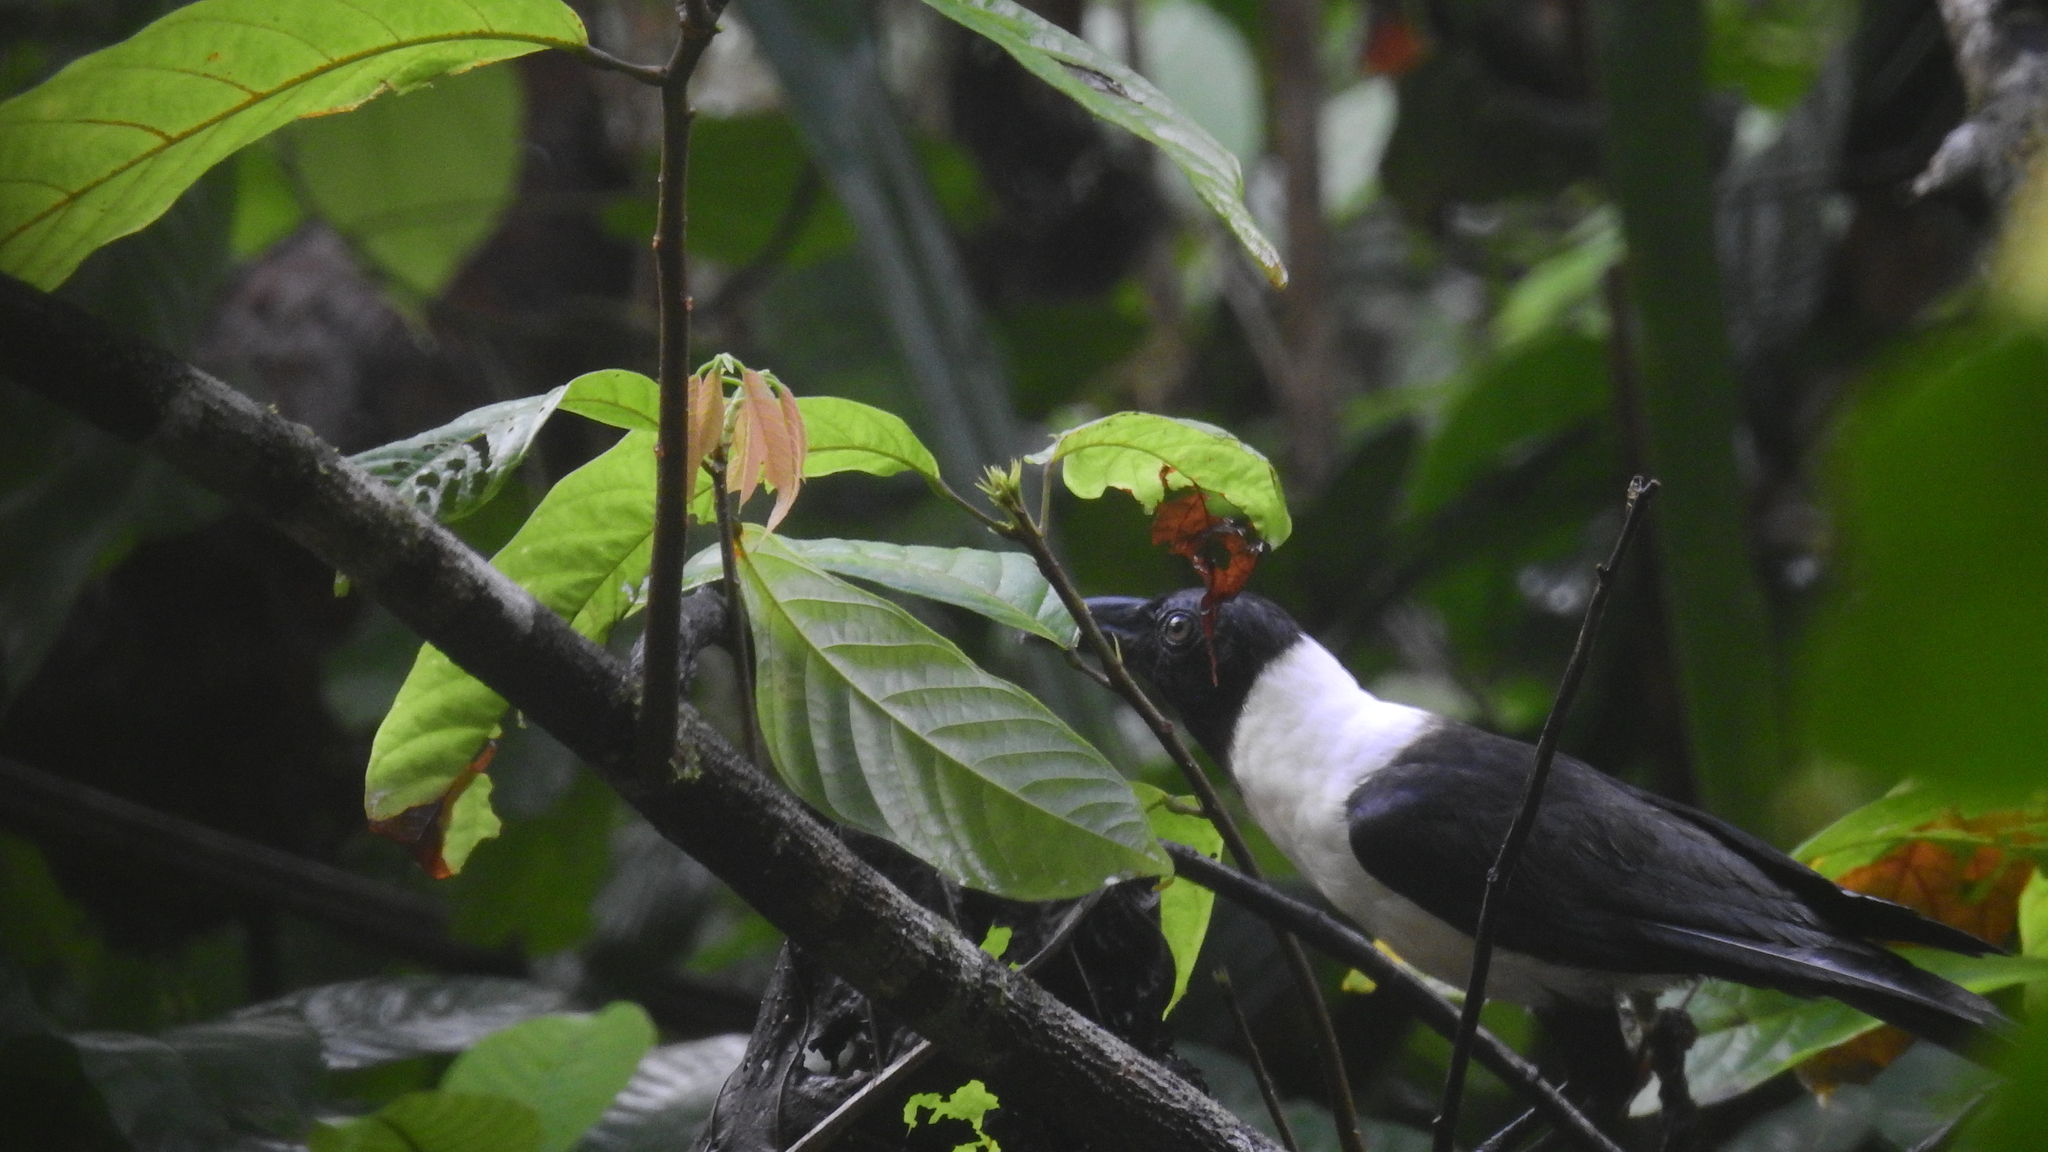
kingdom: Animalia
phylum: Chordata
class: Aves
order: Passeriformes
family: Corvidae
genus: Corvus
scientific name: Corvus typicus
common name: Piping crow
